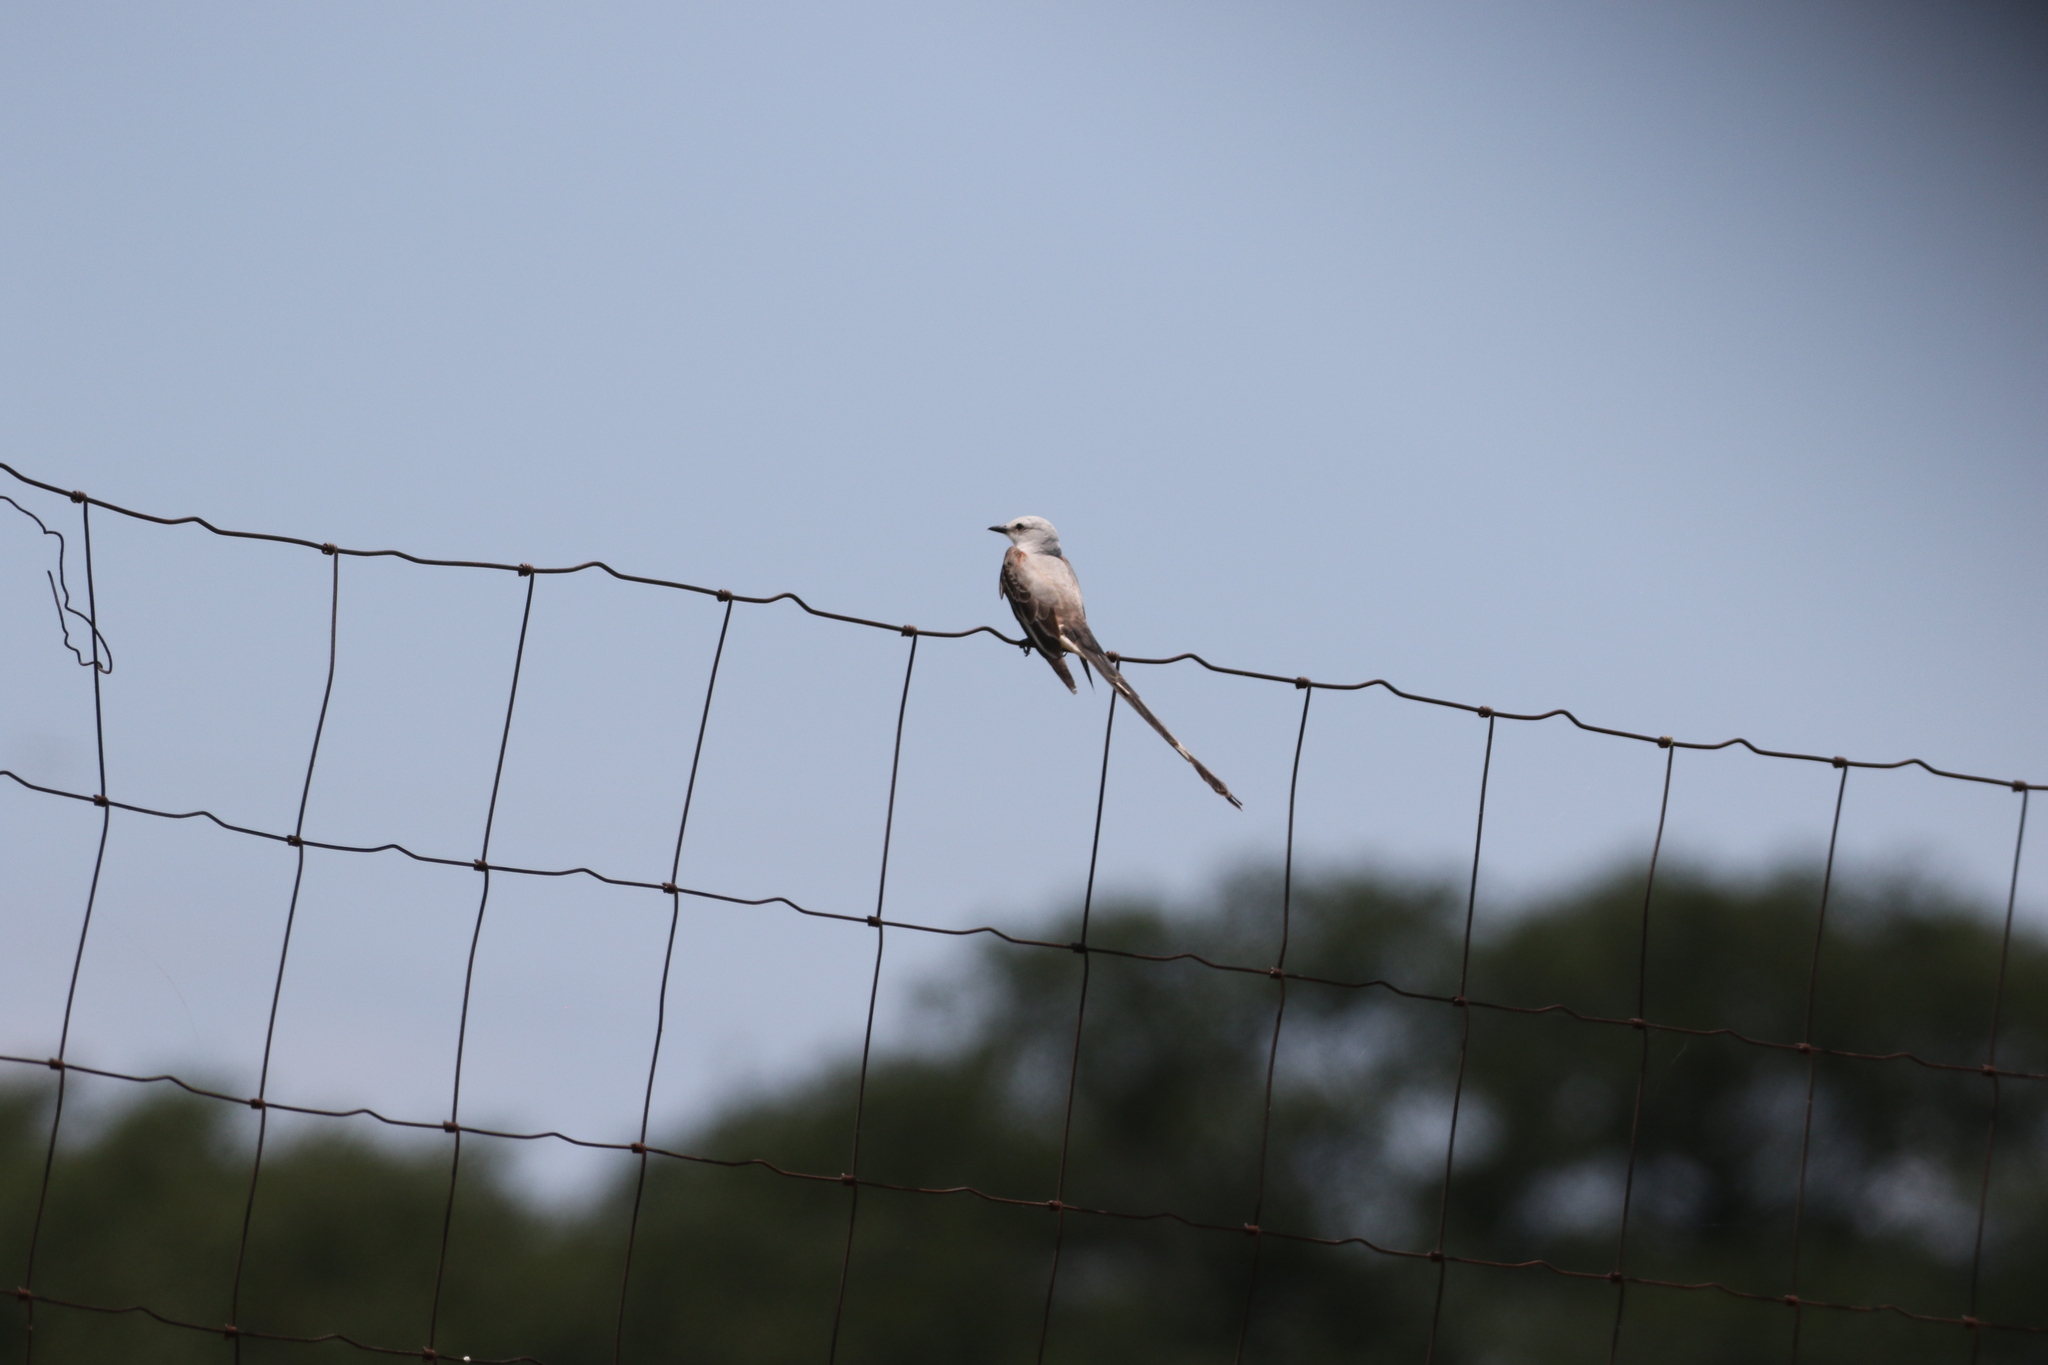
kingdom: Animalia
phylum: Chordata
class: Aves
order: Passeriformes
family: Tyrannidae
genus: Tyrannus
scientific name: Tyrannus forficatus
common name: Scissor-tailed flycatcher
